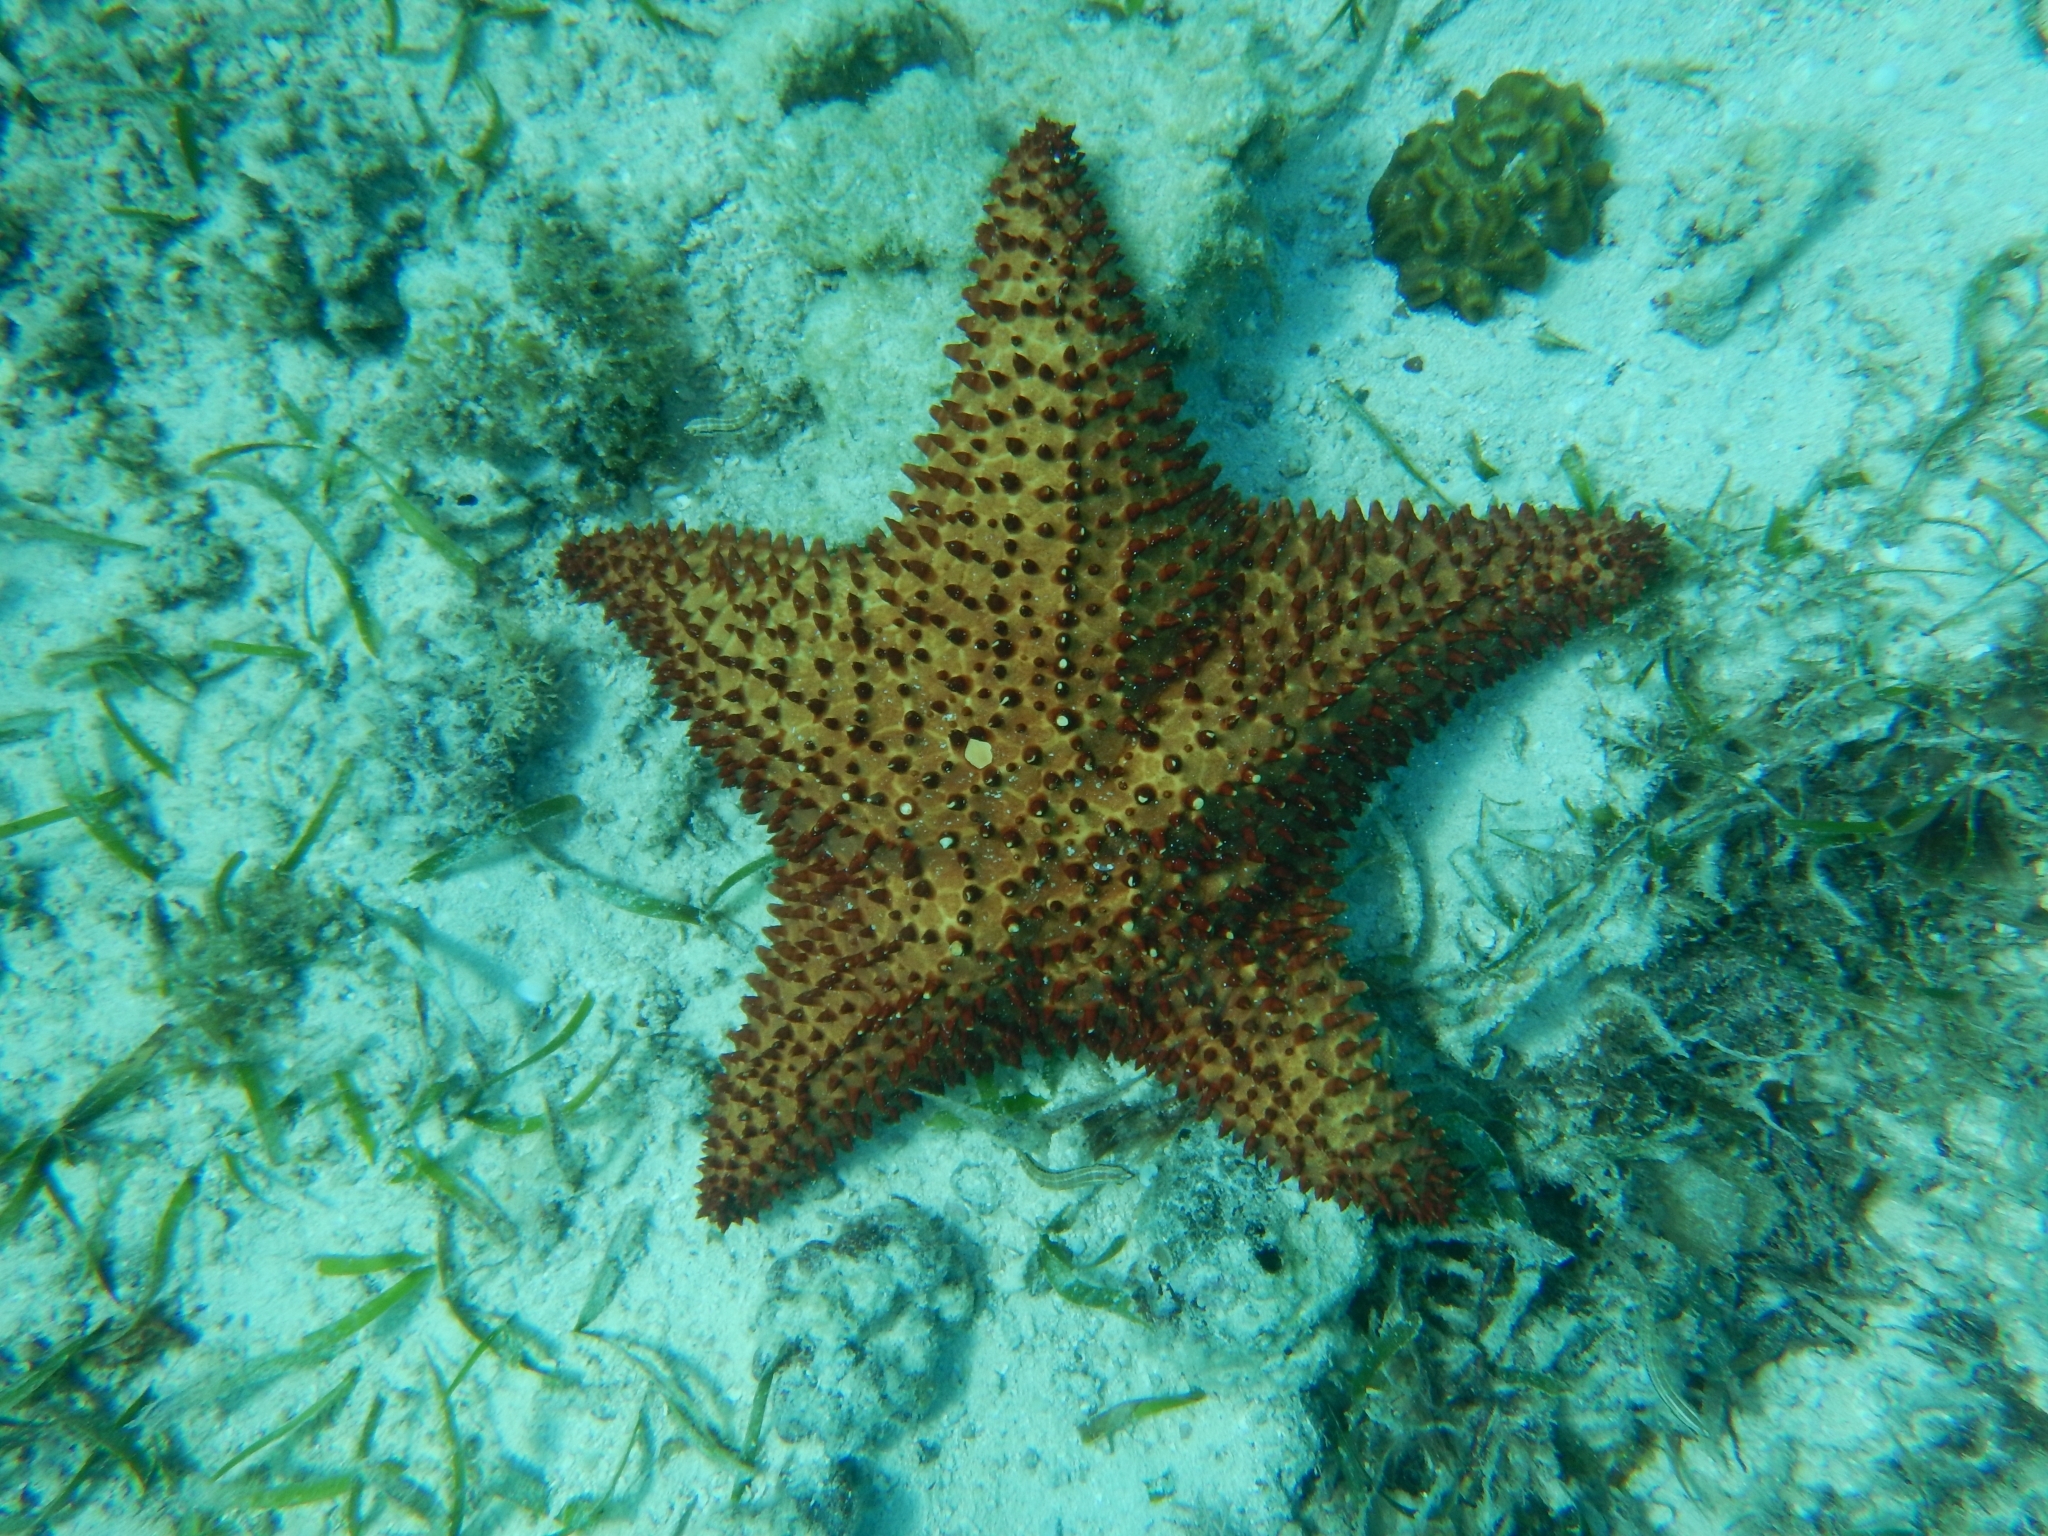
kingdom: Animalia
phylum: Echinodermata
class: Asteroidea
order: Valvatida
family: Oreasteridae
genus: Oreaster
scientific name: Oreaster reticulatus
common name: Cushion sea star
